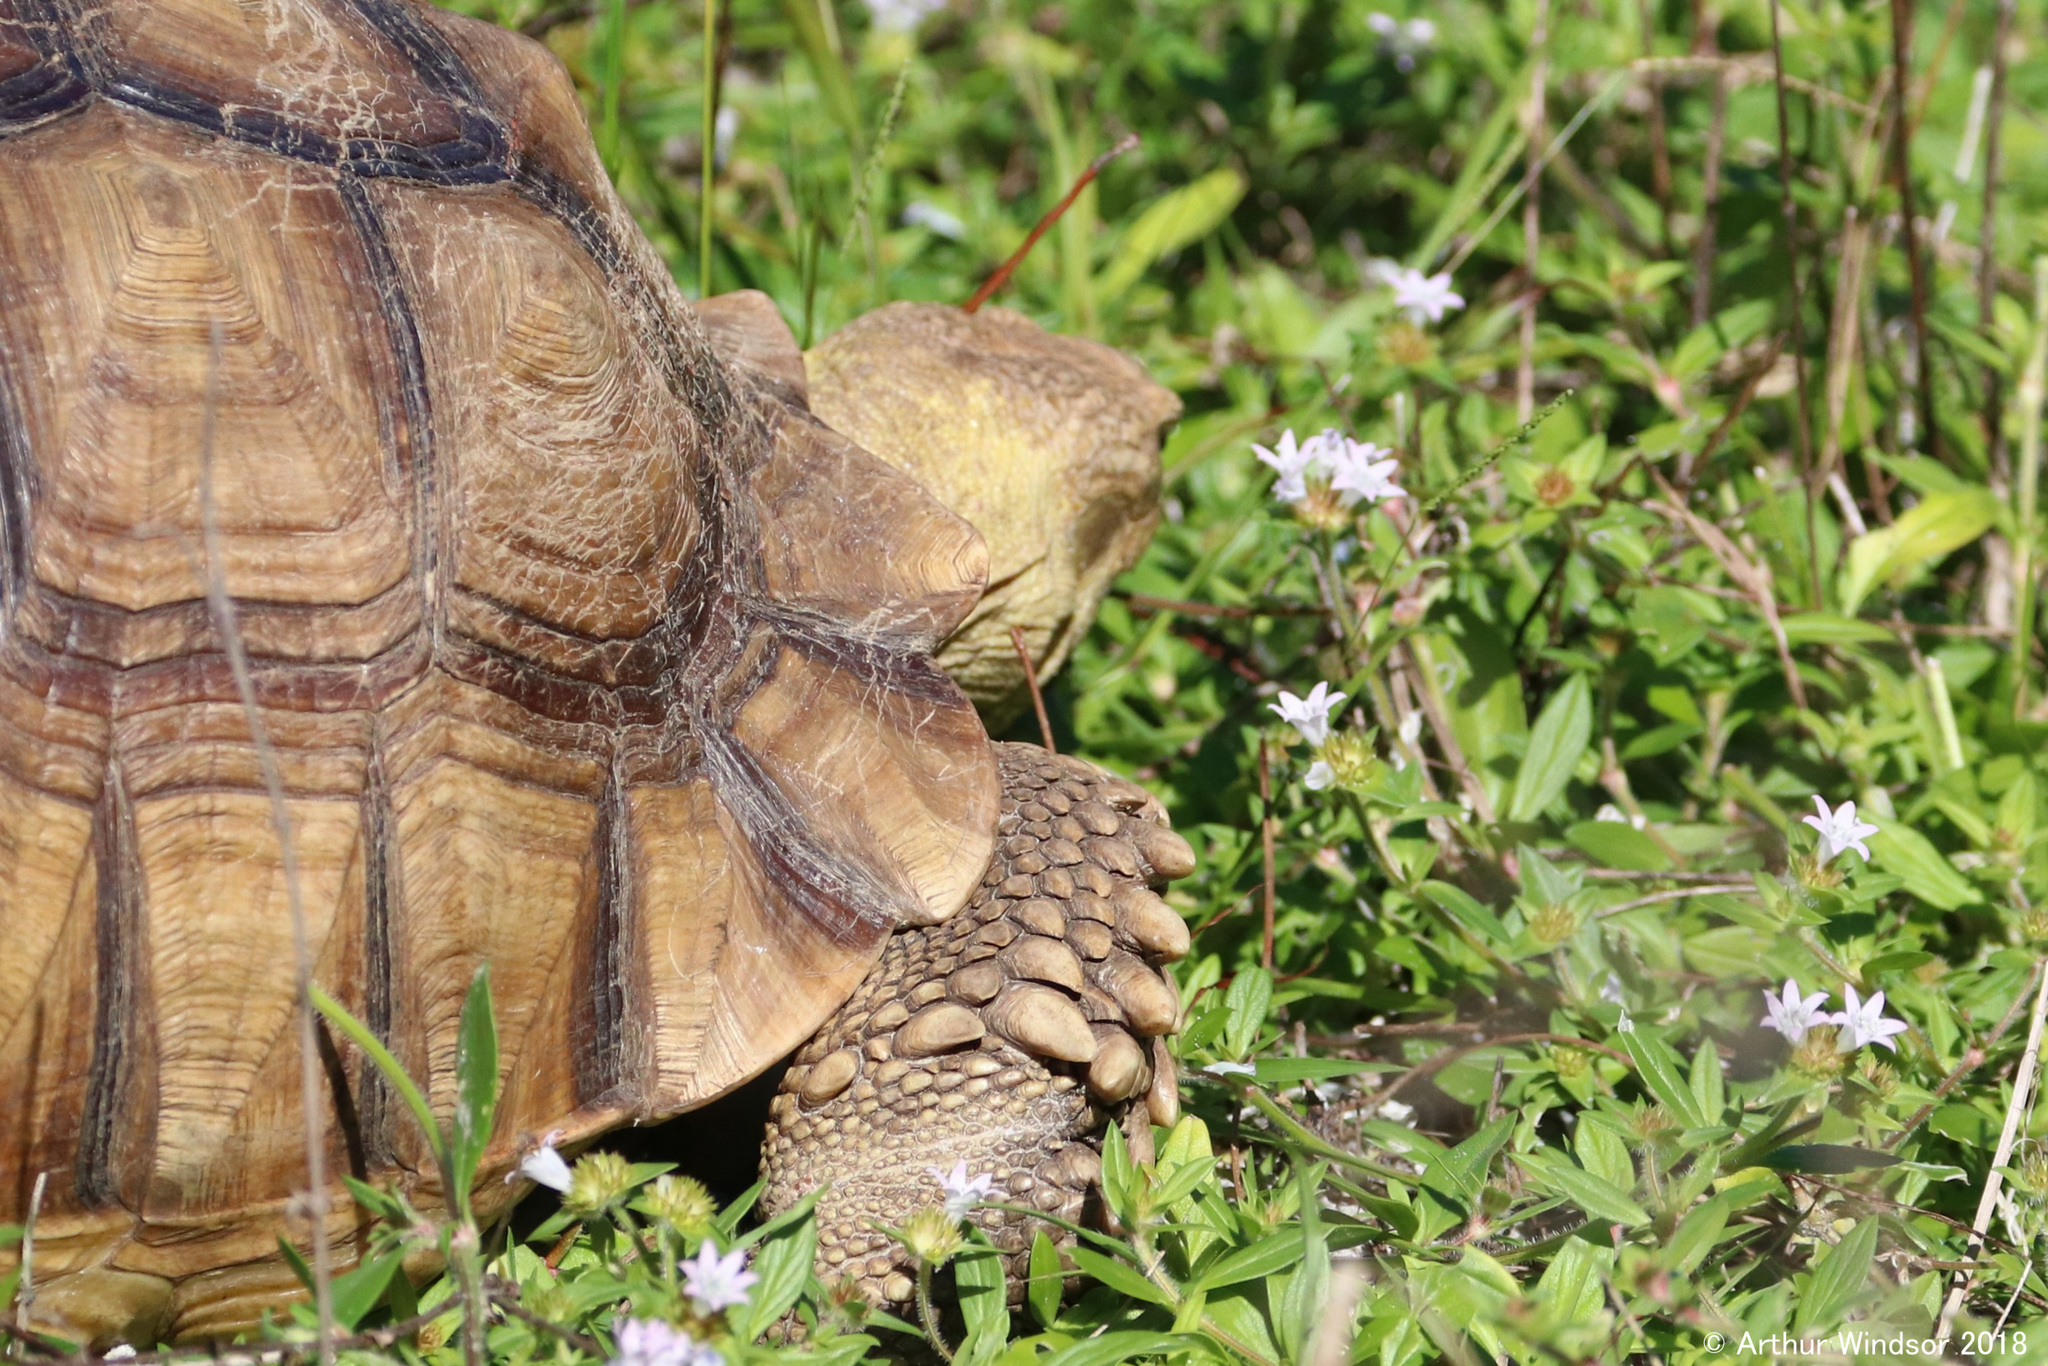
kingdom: Animalia
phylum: Chordata
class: Testudines
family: Testudinidae
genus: Centrochelys
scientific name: Centrochelys sulcata
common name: African spurred tortoise
